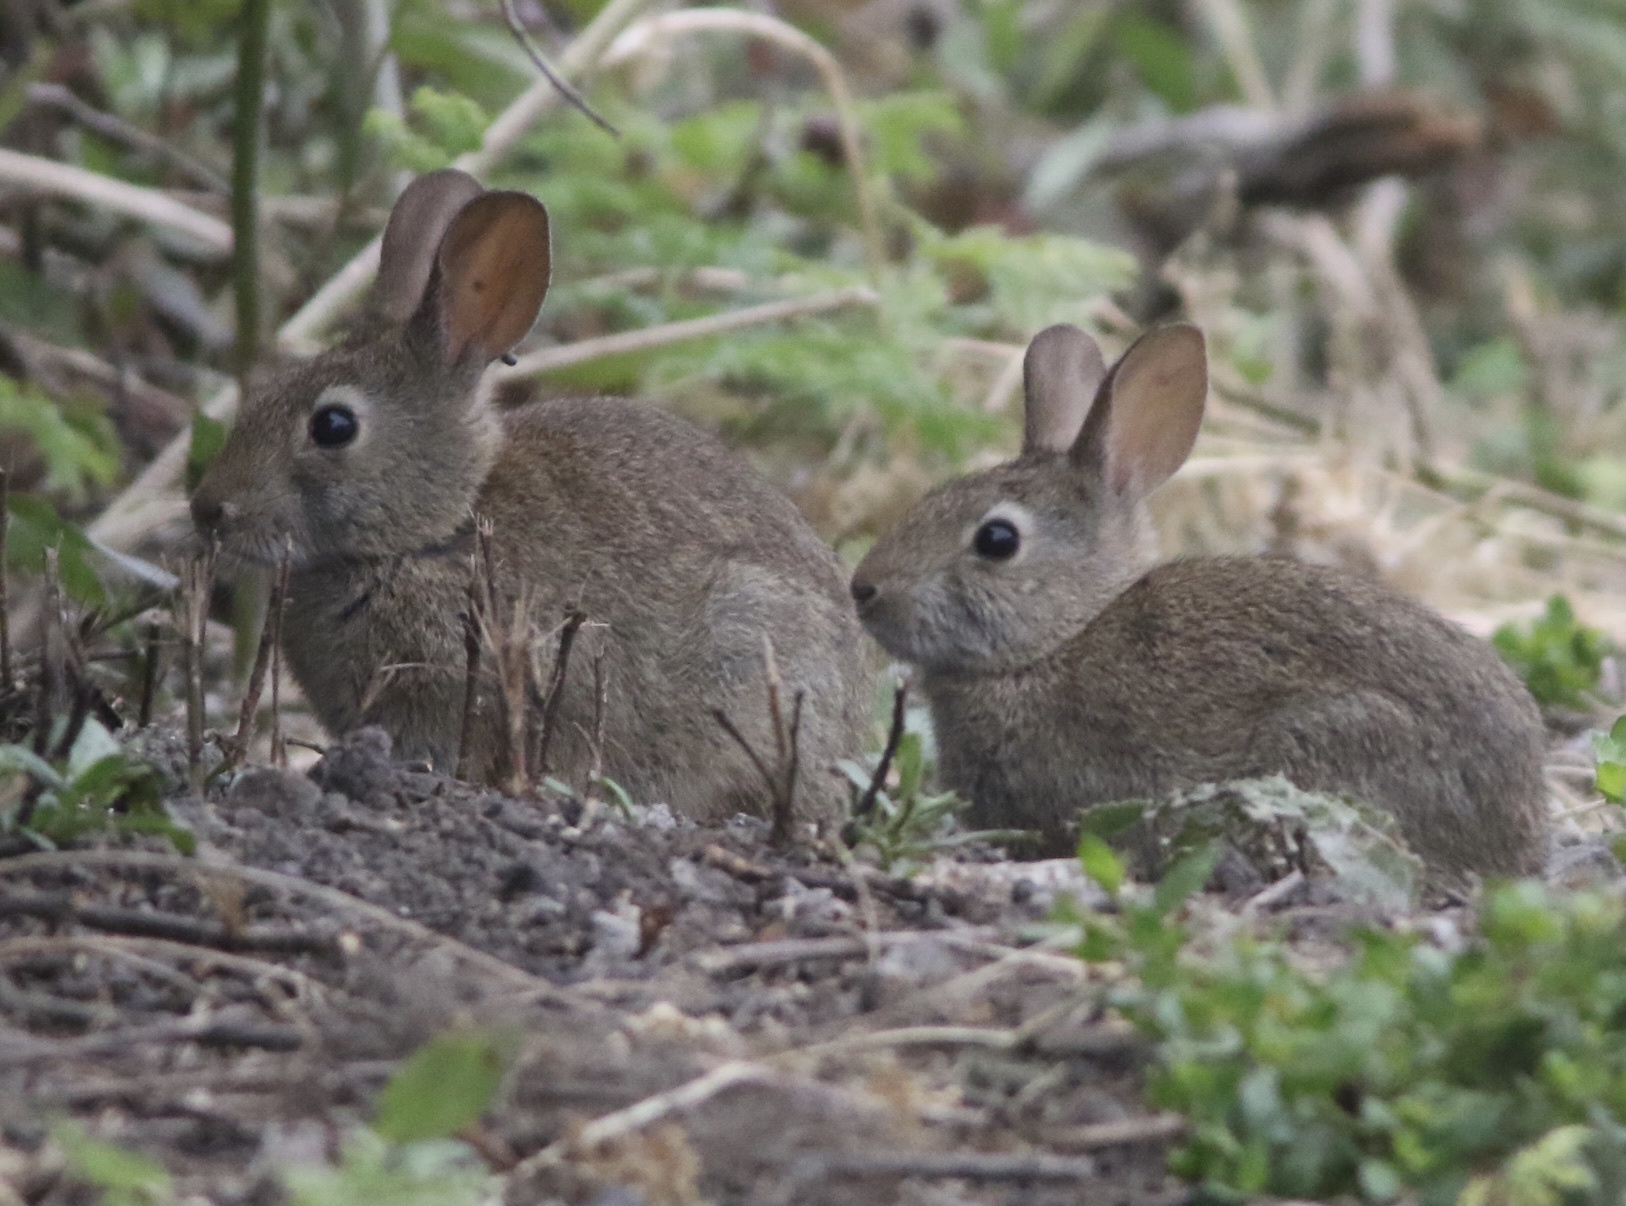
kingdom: Animalia
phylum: Chordata
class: Mammalia
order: Lagomorpha
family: Leporidae
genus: Sylvilagus
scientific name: Sylvilagus bachmani
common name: Brush rabbit
